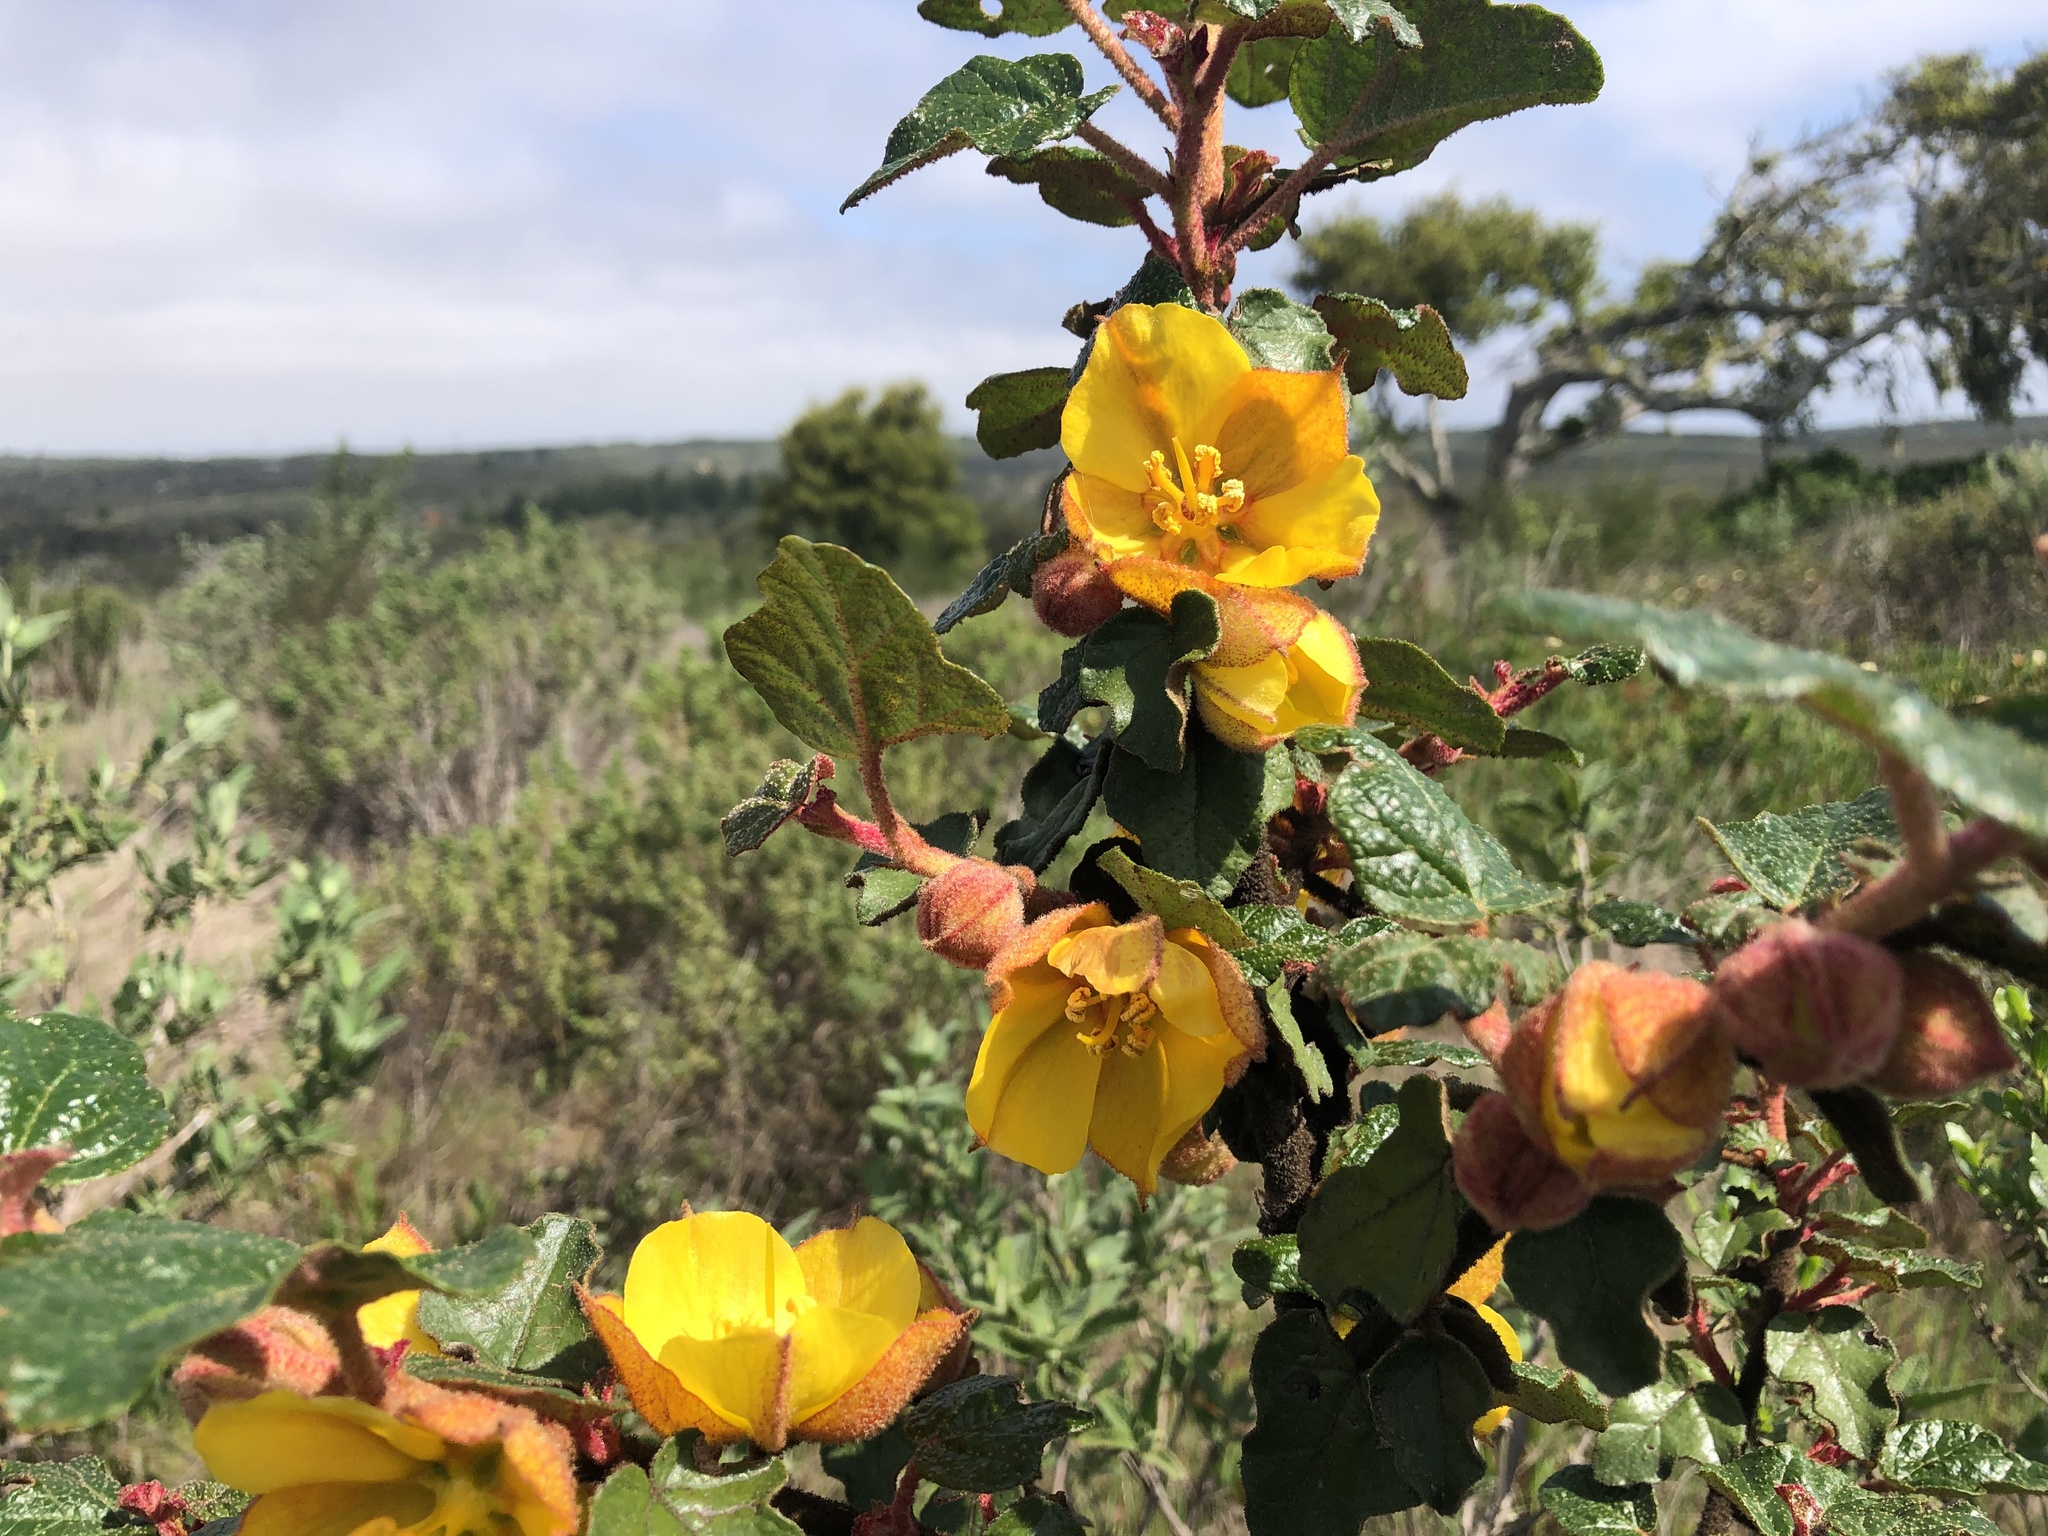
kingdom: Plantae
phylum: Tracheophyta
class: Magnoliopsida
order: Malvales
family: Malvaceae
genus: Fremontodendron
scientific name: Fremontodendron californicum
